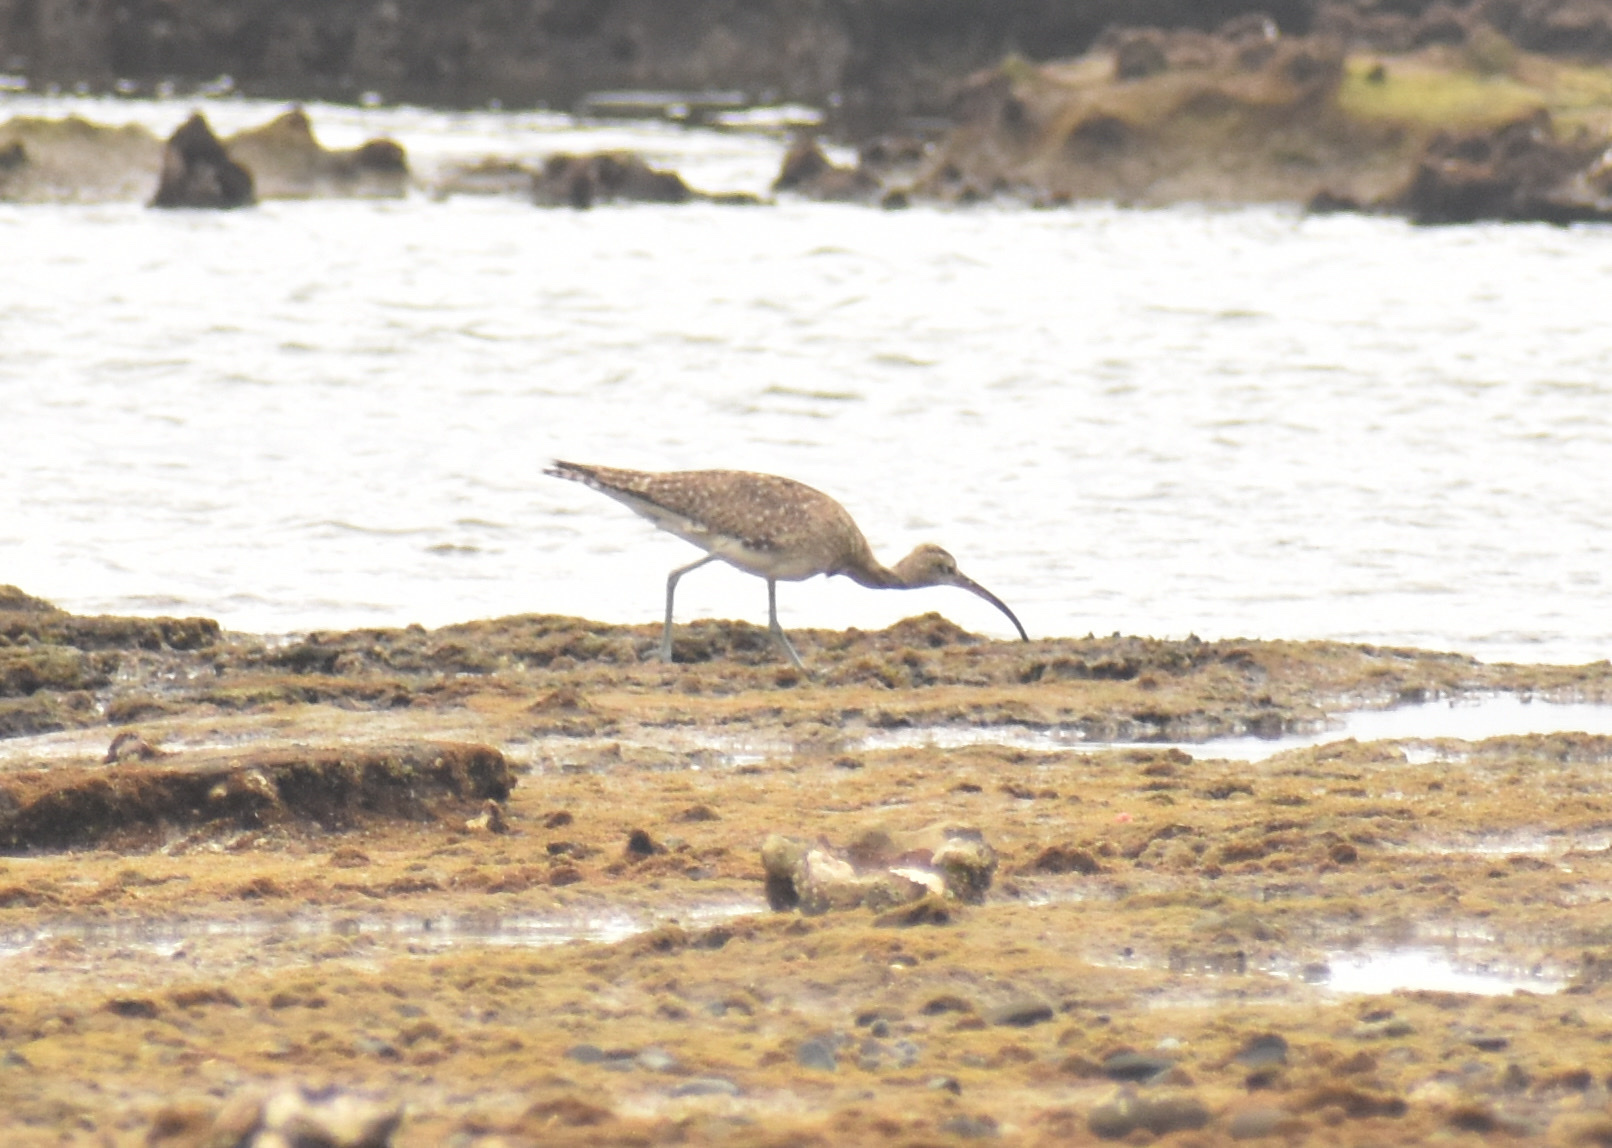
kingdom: Animalia
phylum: Chordata
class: Aves
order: Charadriiformes
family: Scolopacidae
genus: Numenius
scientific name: Numenius arquata
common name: Eurasian curlew
